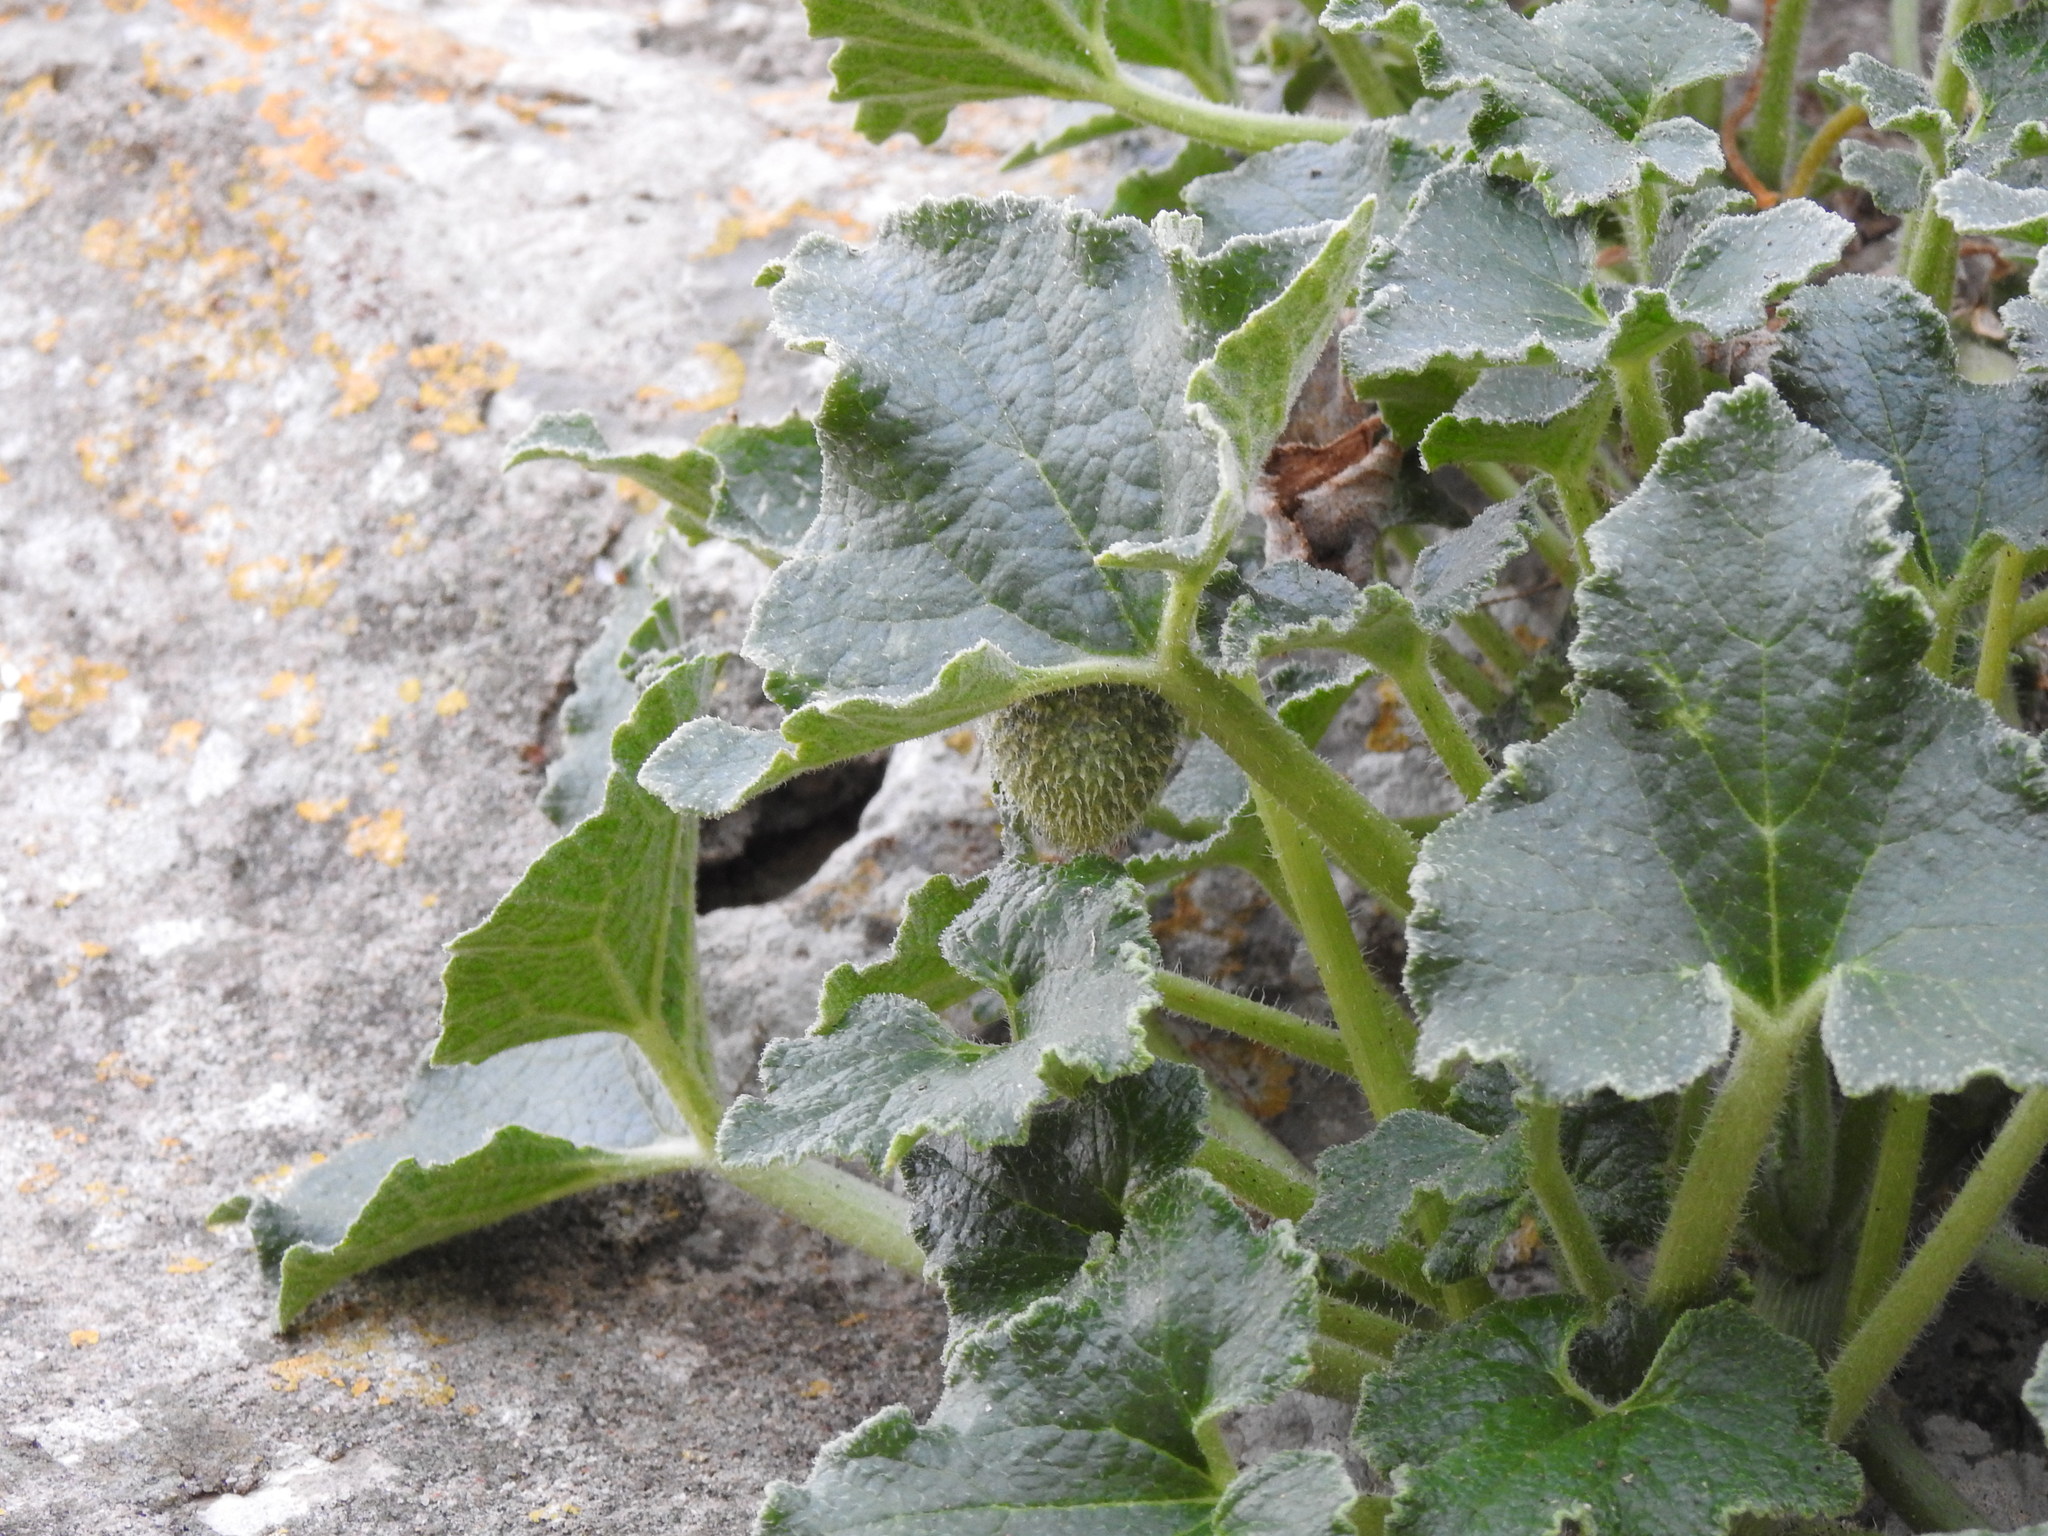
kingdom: Plantae
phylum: Tracheophyta
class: Magnoliopsida
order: Cucurbitales
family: Cucurbitaceae
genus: Ecballium
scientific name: Ecballium elaterium
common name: Squirting cucumber
